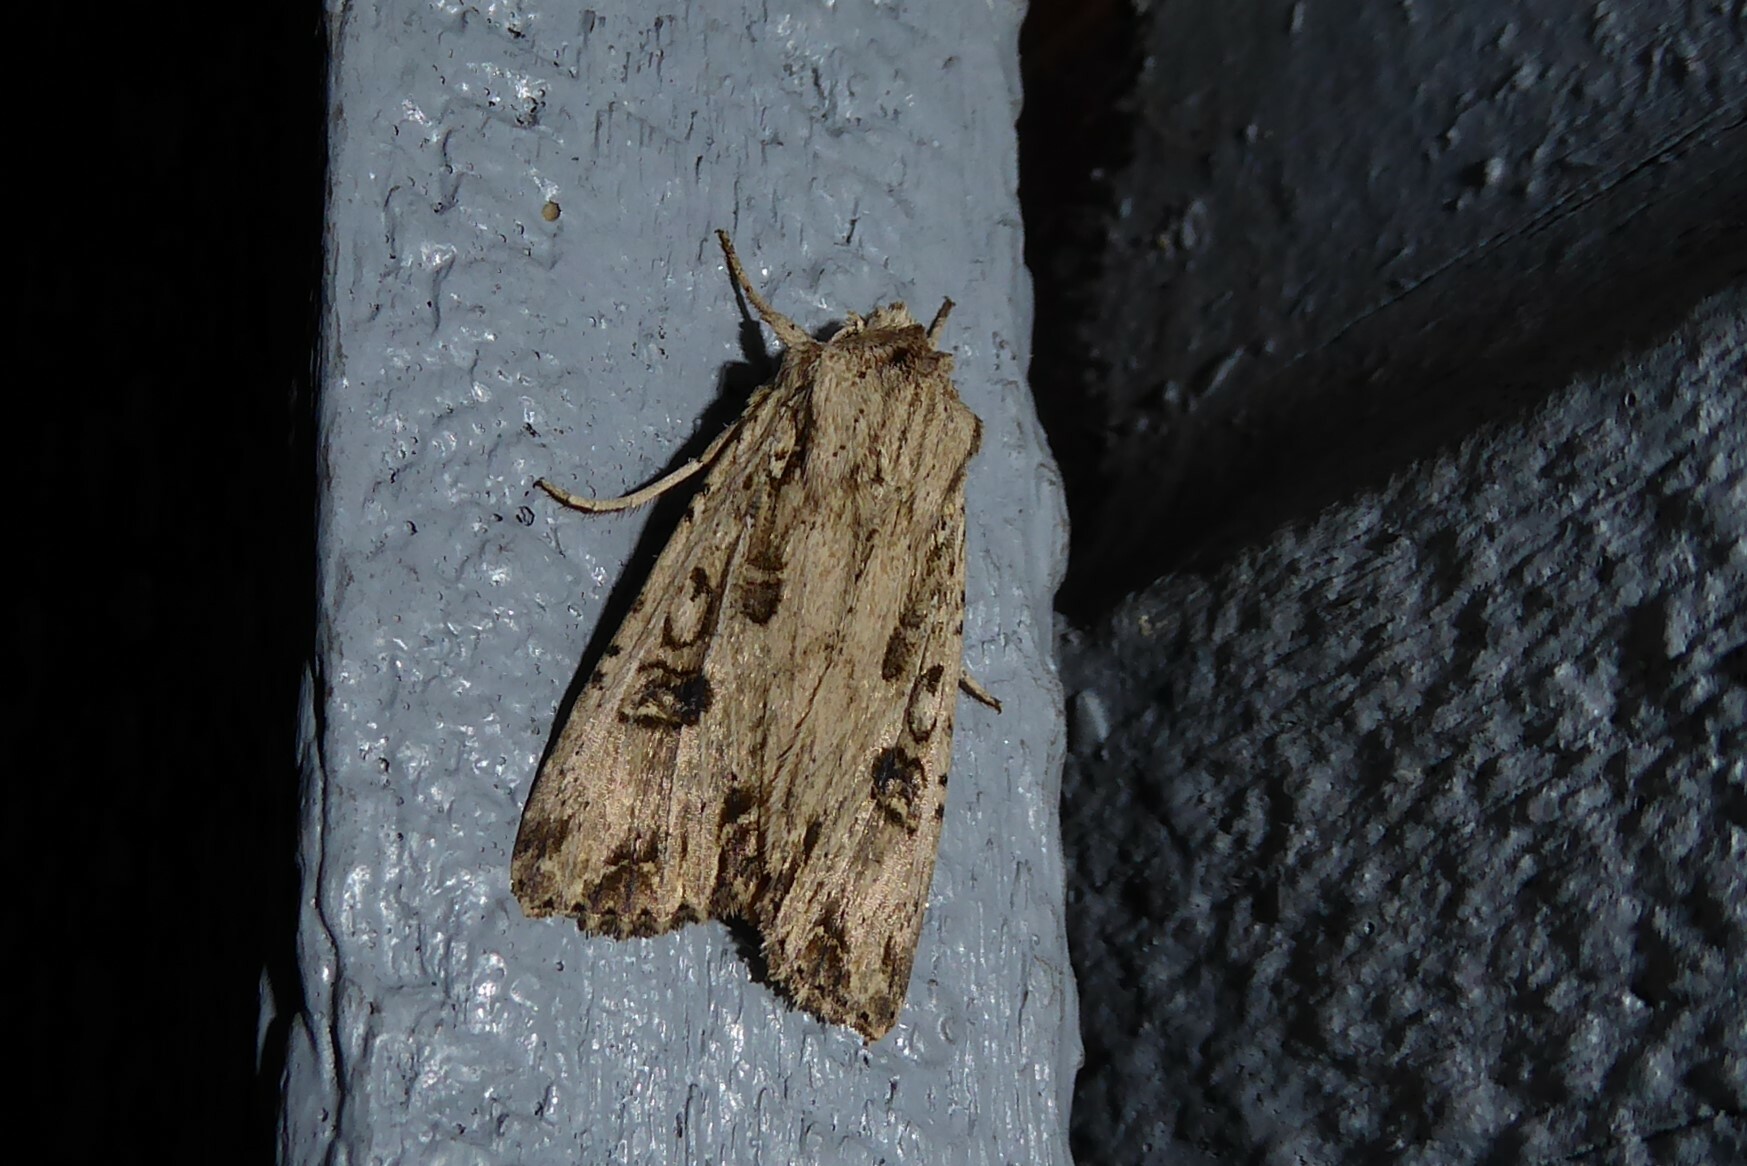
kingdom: Animalia
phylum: Arthropoda
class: Insecta
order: Lepidoptera
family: Noctuidae
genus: Ichneutica
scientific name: Ichneutica lignana
